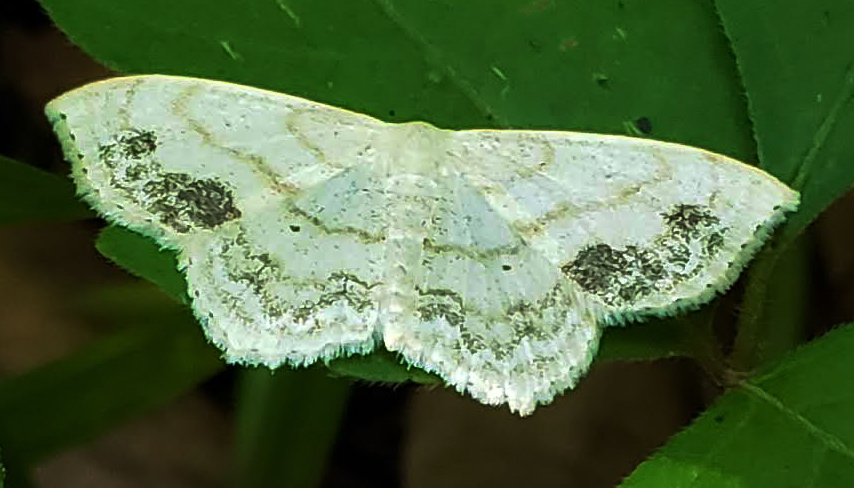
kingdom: Animalia
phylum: Arthropoda
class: Insecta
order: Lepidoptera
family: Geometridae
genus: Scopula
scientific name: Scopula limboundata
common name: Large lace border
